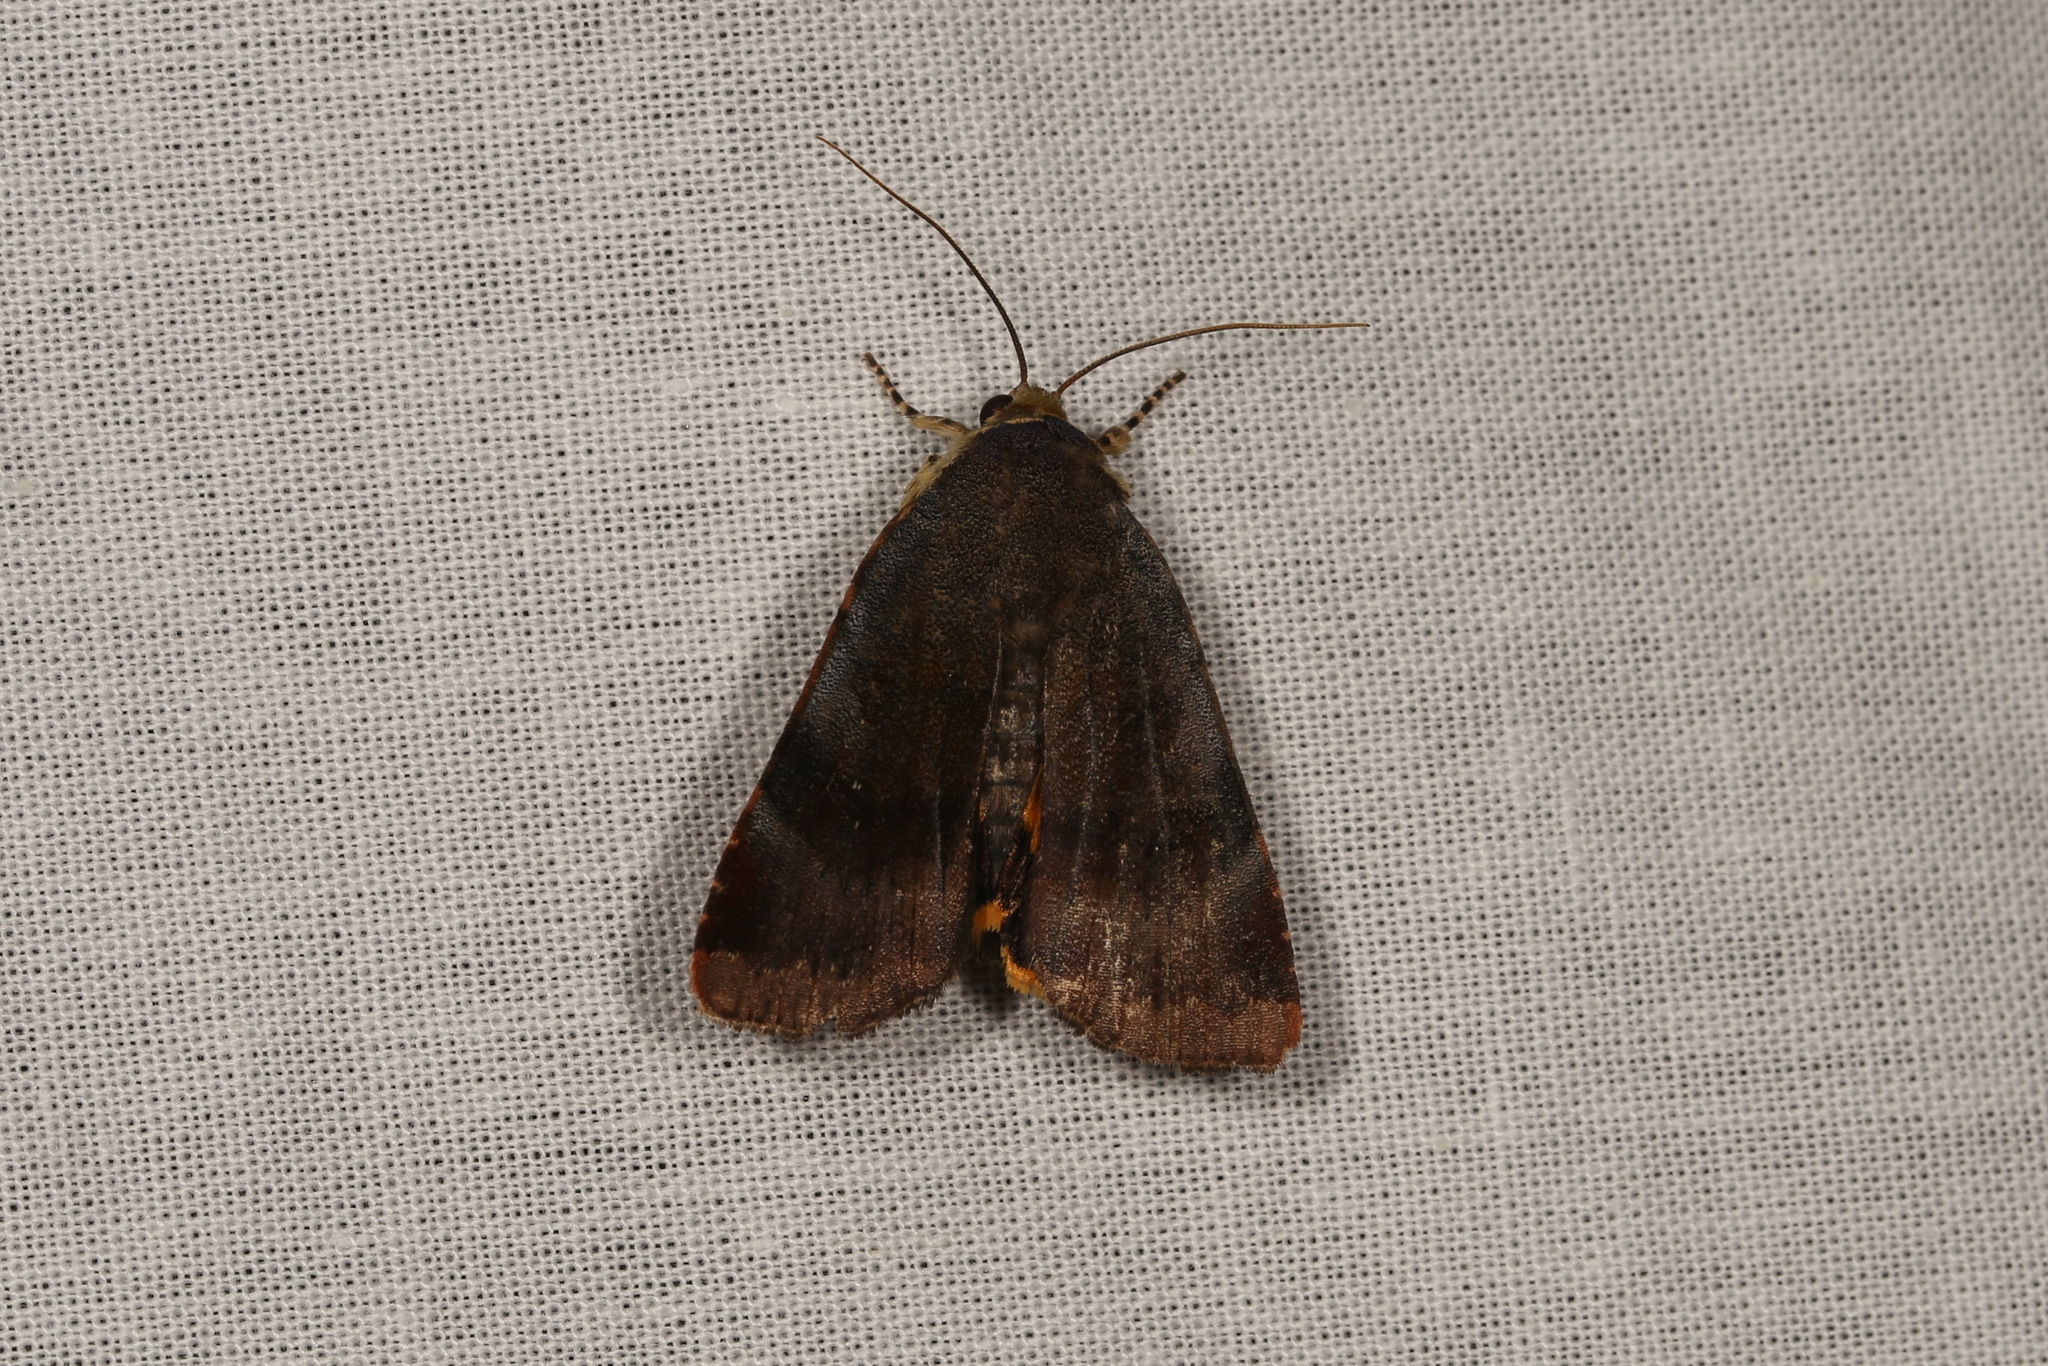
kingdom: Animalia
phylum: Arthropoda
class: Insecta
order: Lepidoptera
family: Noctuidae
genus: Noctua
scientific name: Noctua
